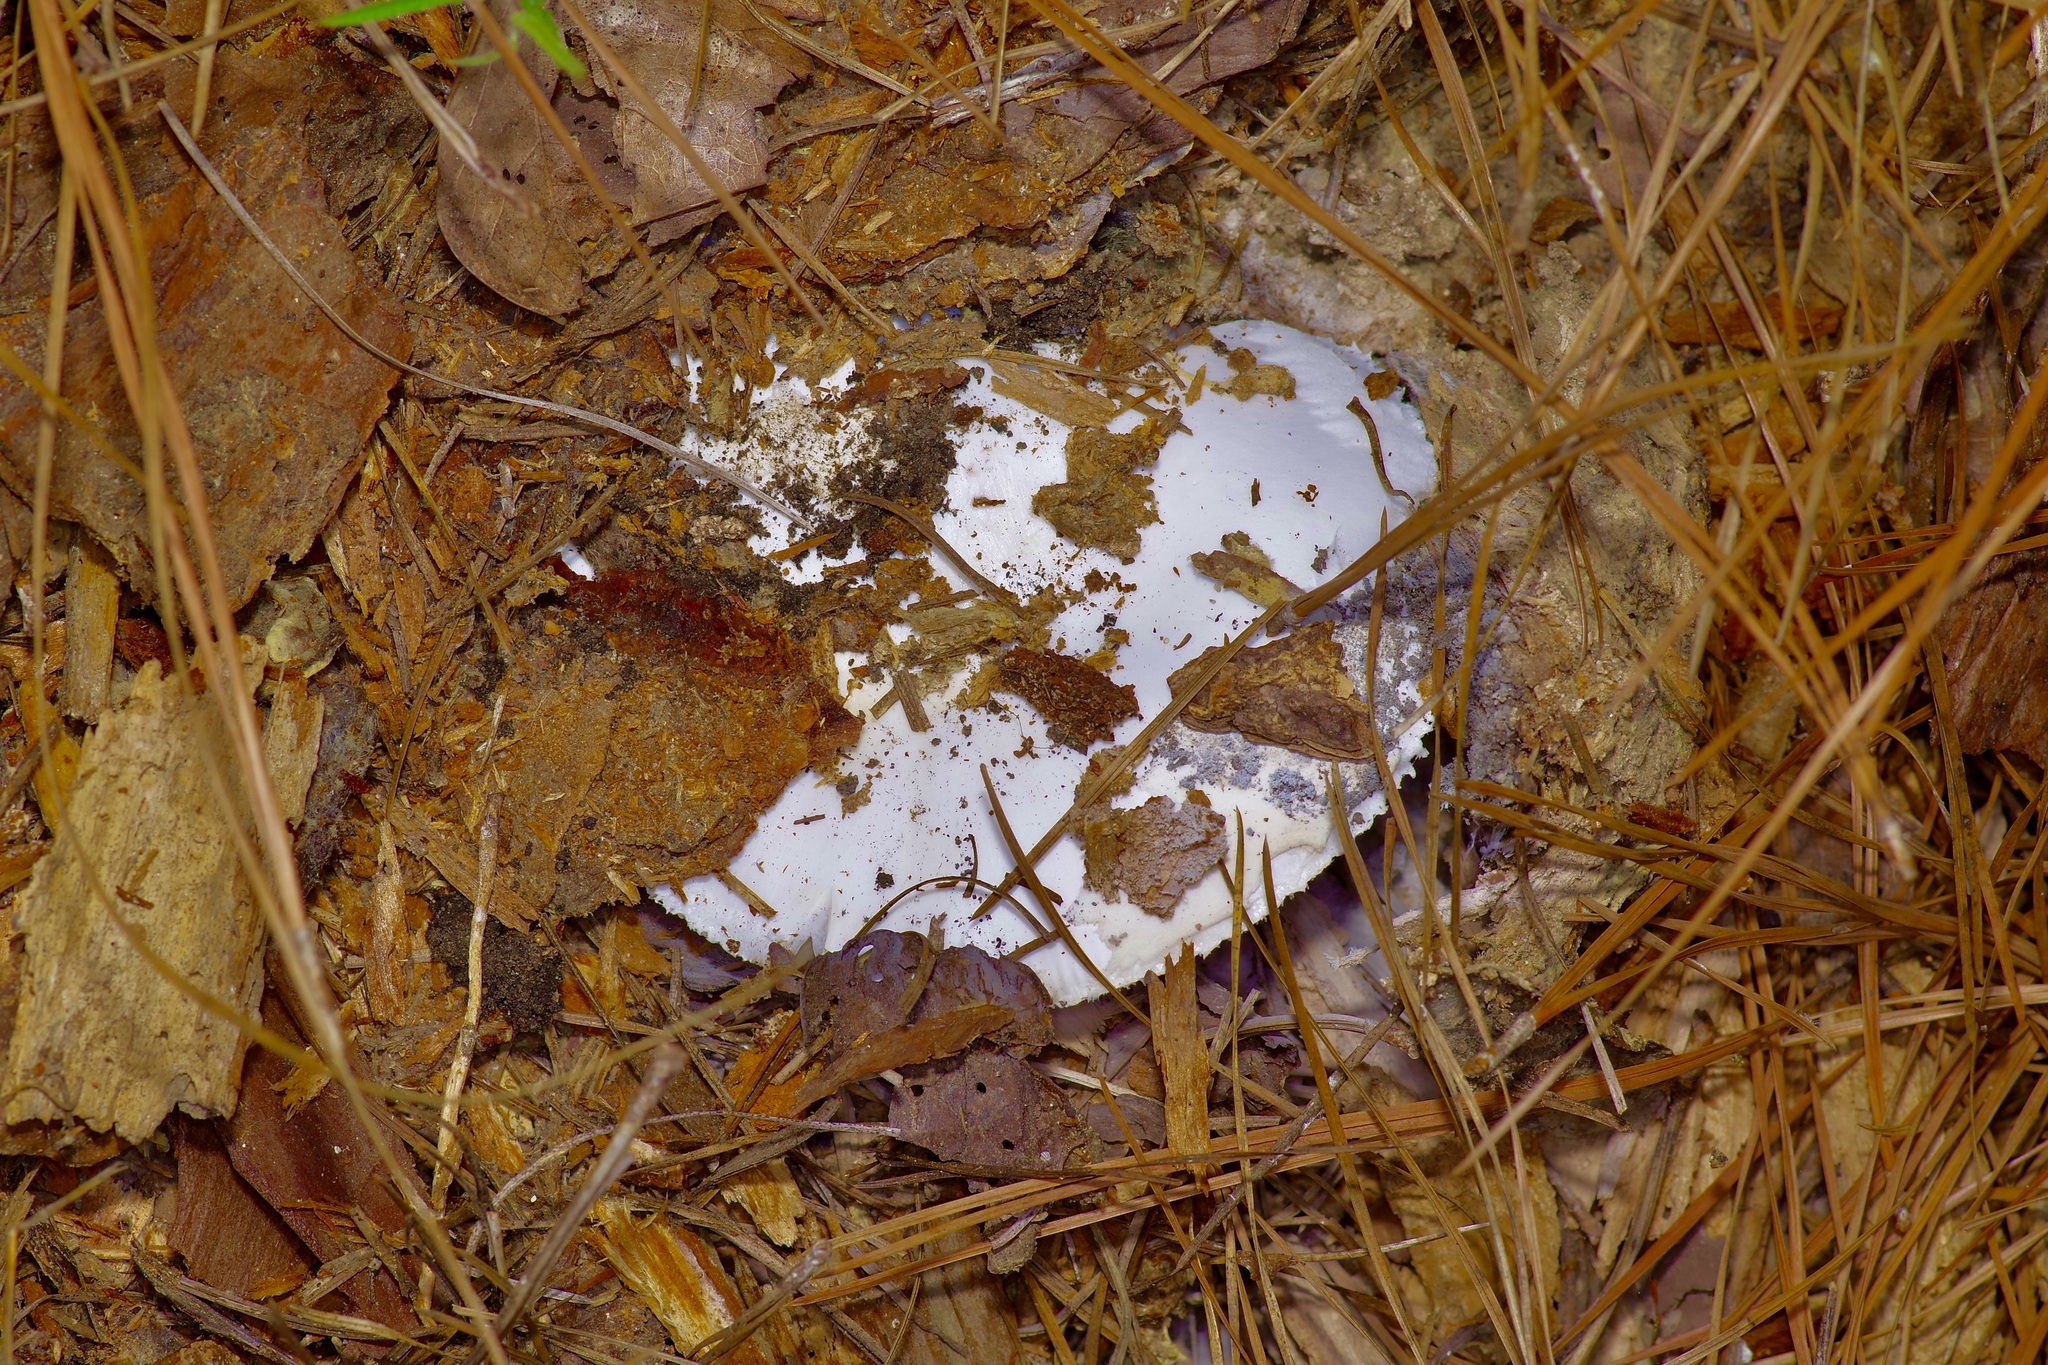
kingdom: Fungi
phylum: Basidiomycota
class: Agaricomycetes
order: Agaricales
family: Amanitaceae
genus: Amanita
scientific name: Amanita mutabilis
